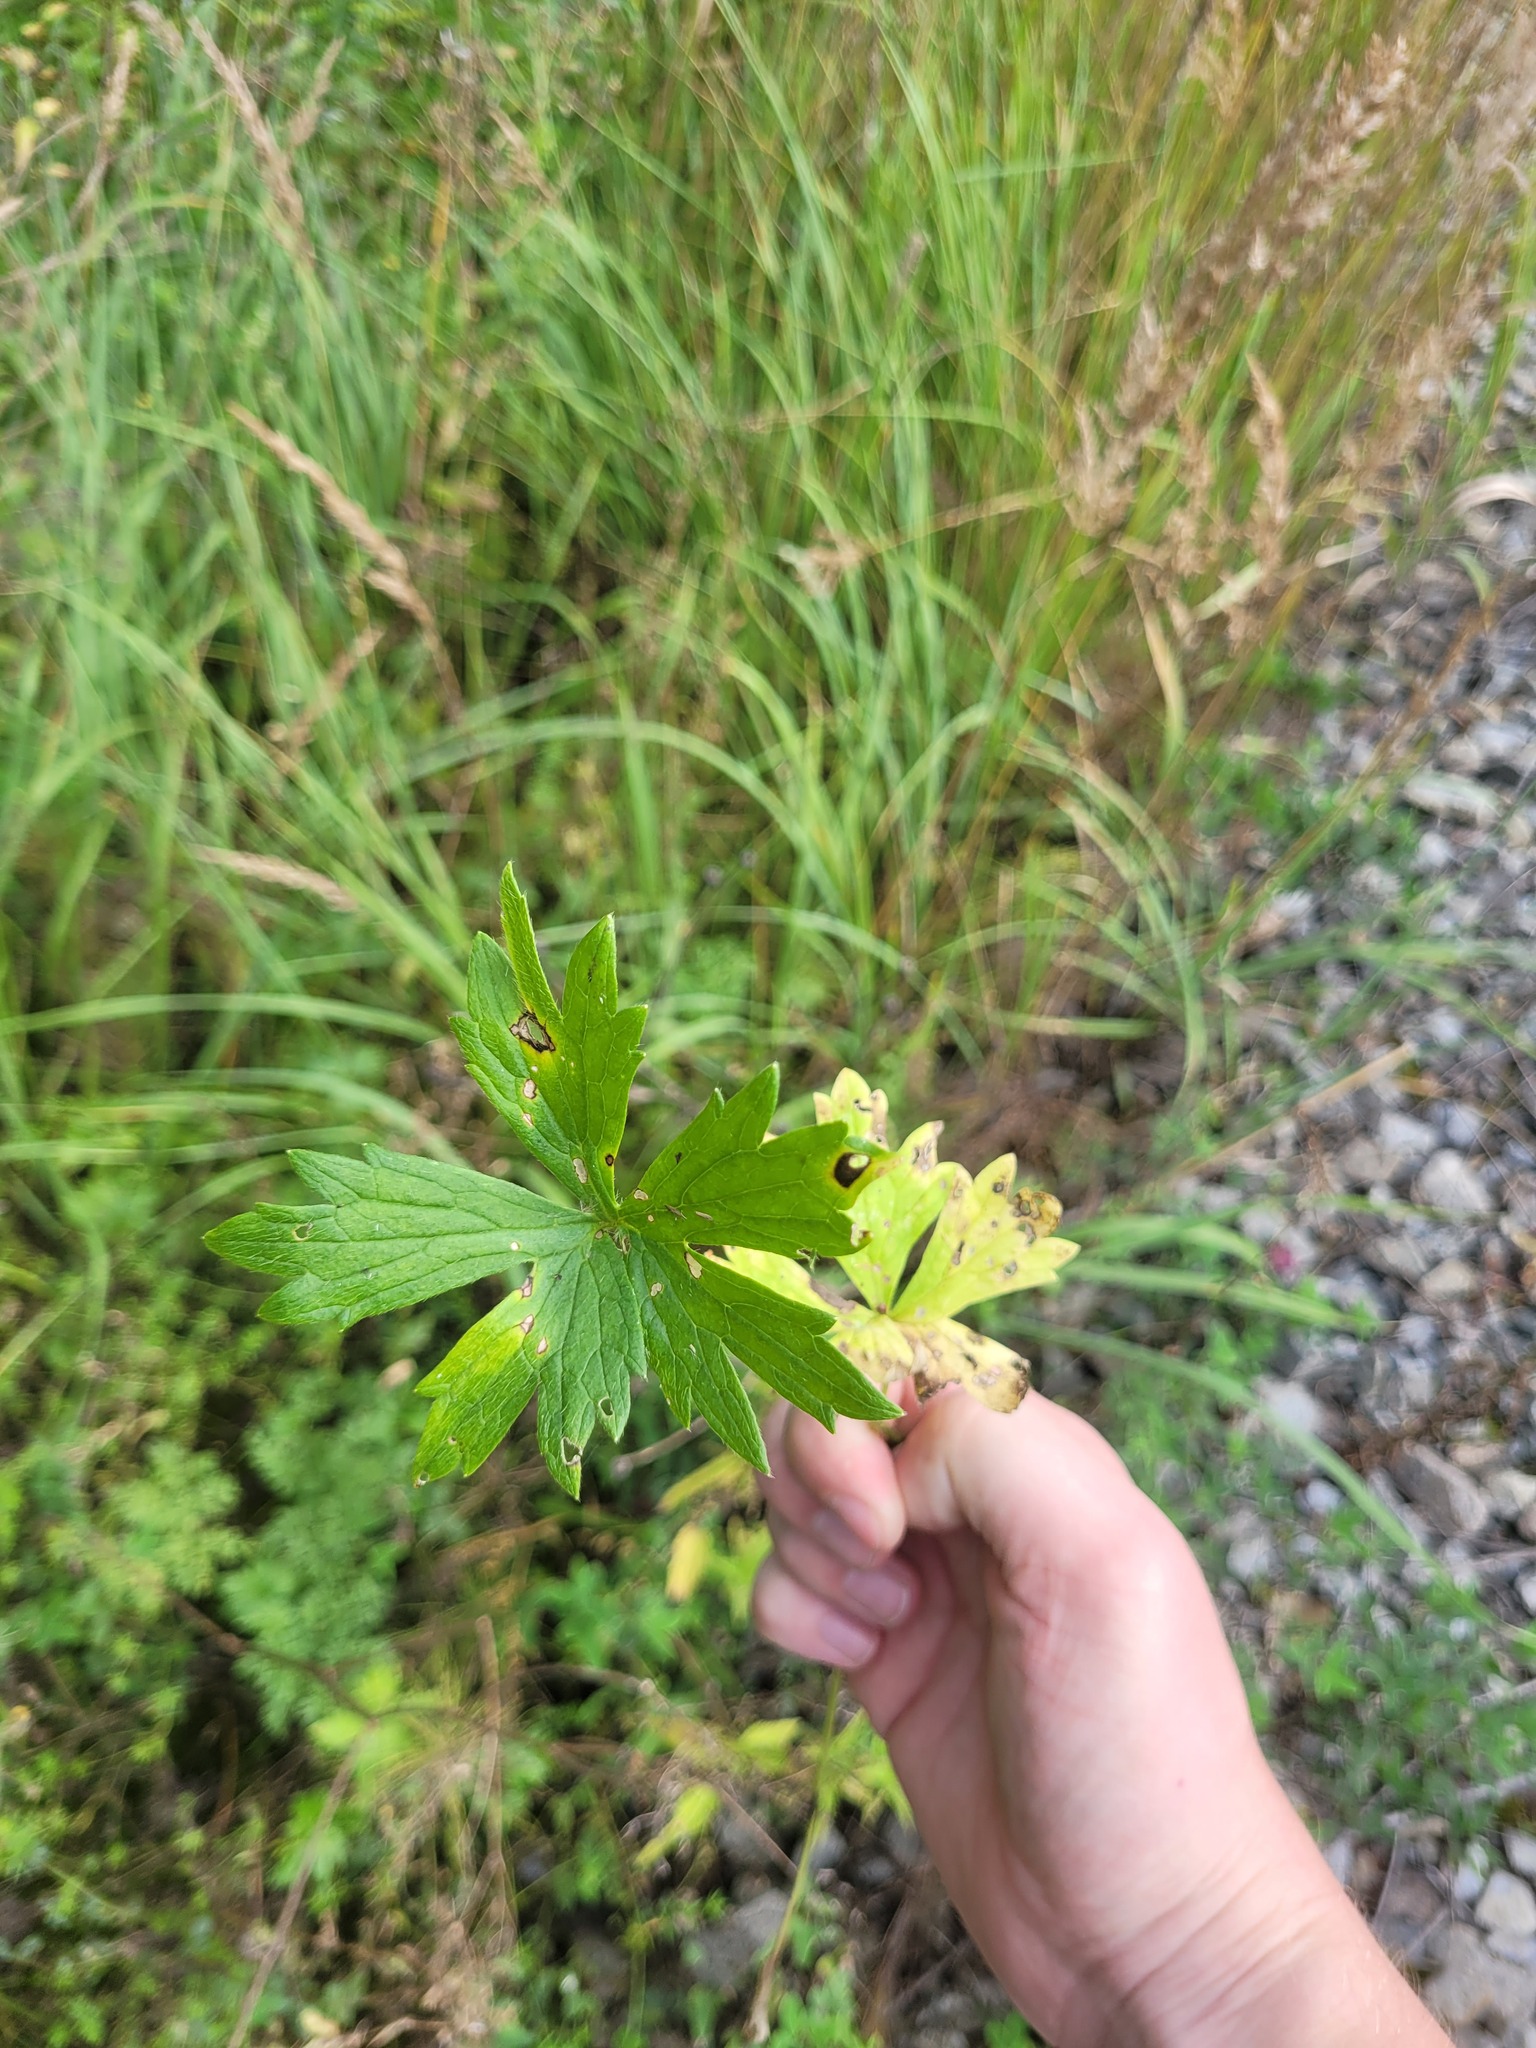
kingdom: Plantae
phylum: Tracheophyta
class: Magnoliopsida
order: Ranunculales
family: Ranunculaceae
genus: Ranunculus
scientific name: Ranunculus polyanthemos
